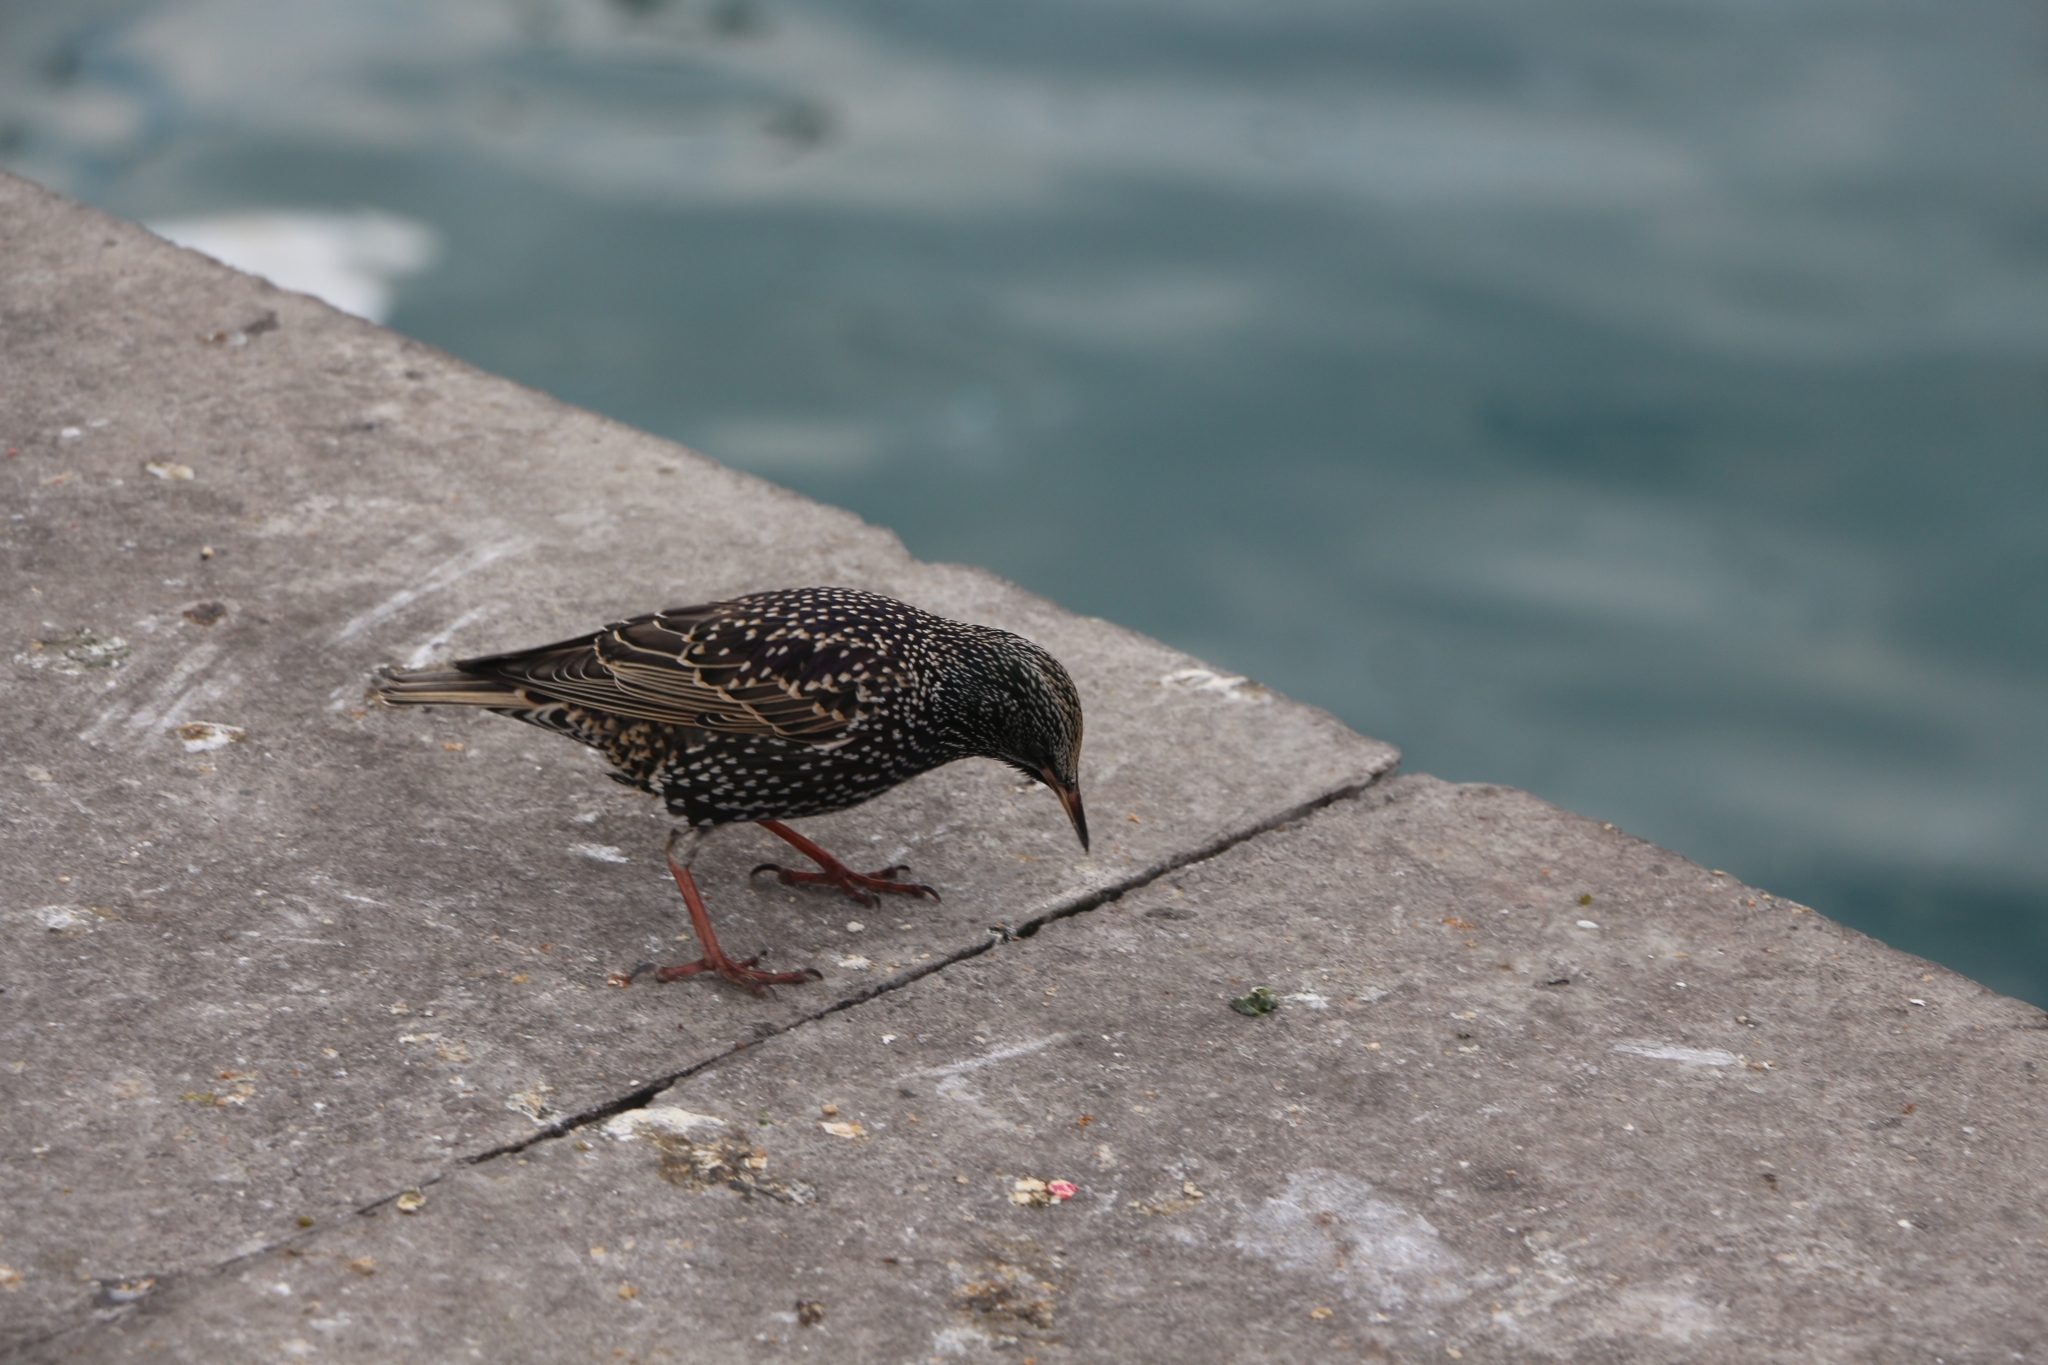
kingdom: Animalia
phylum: Chordata
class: Aves
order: Passeriformes
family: Sturnidae
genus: Sturnus
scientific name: Sturnus vulgaris
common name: Common starling
